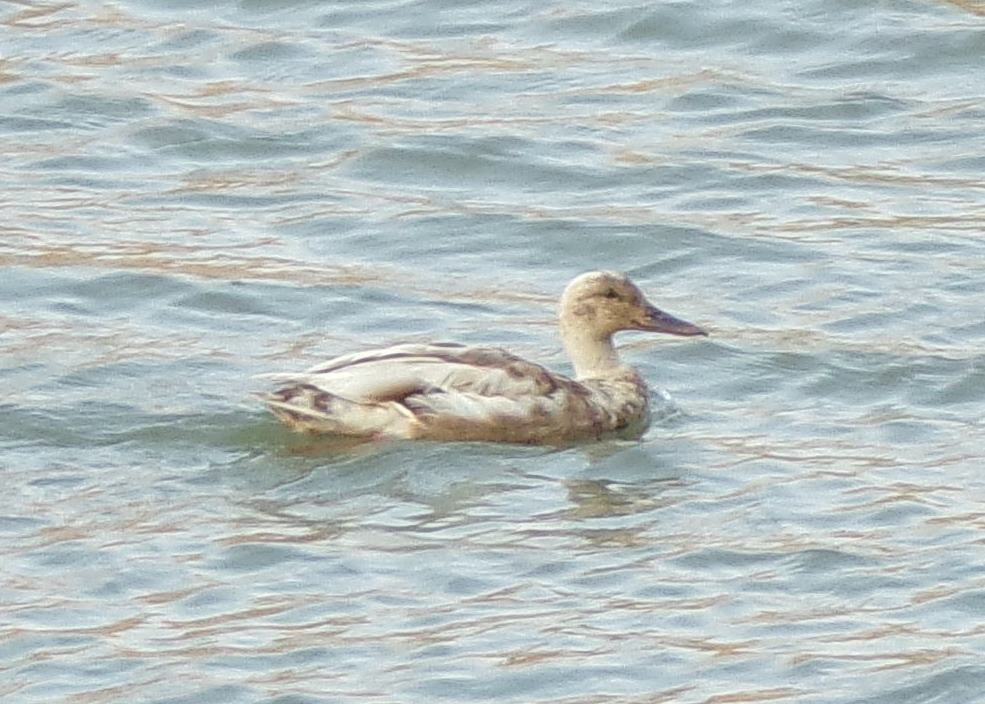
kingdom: Animalia
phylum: Chordata
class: Aves
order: Anseriformes
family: Anatidae
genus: Anas
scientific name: Anas platyrhynchos
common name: Mallard
